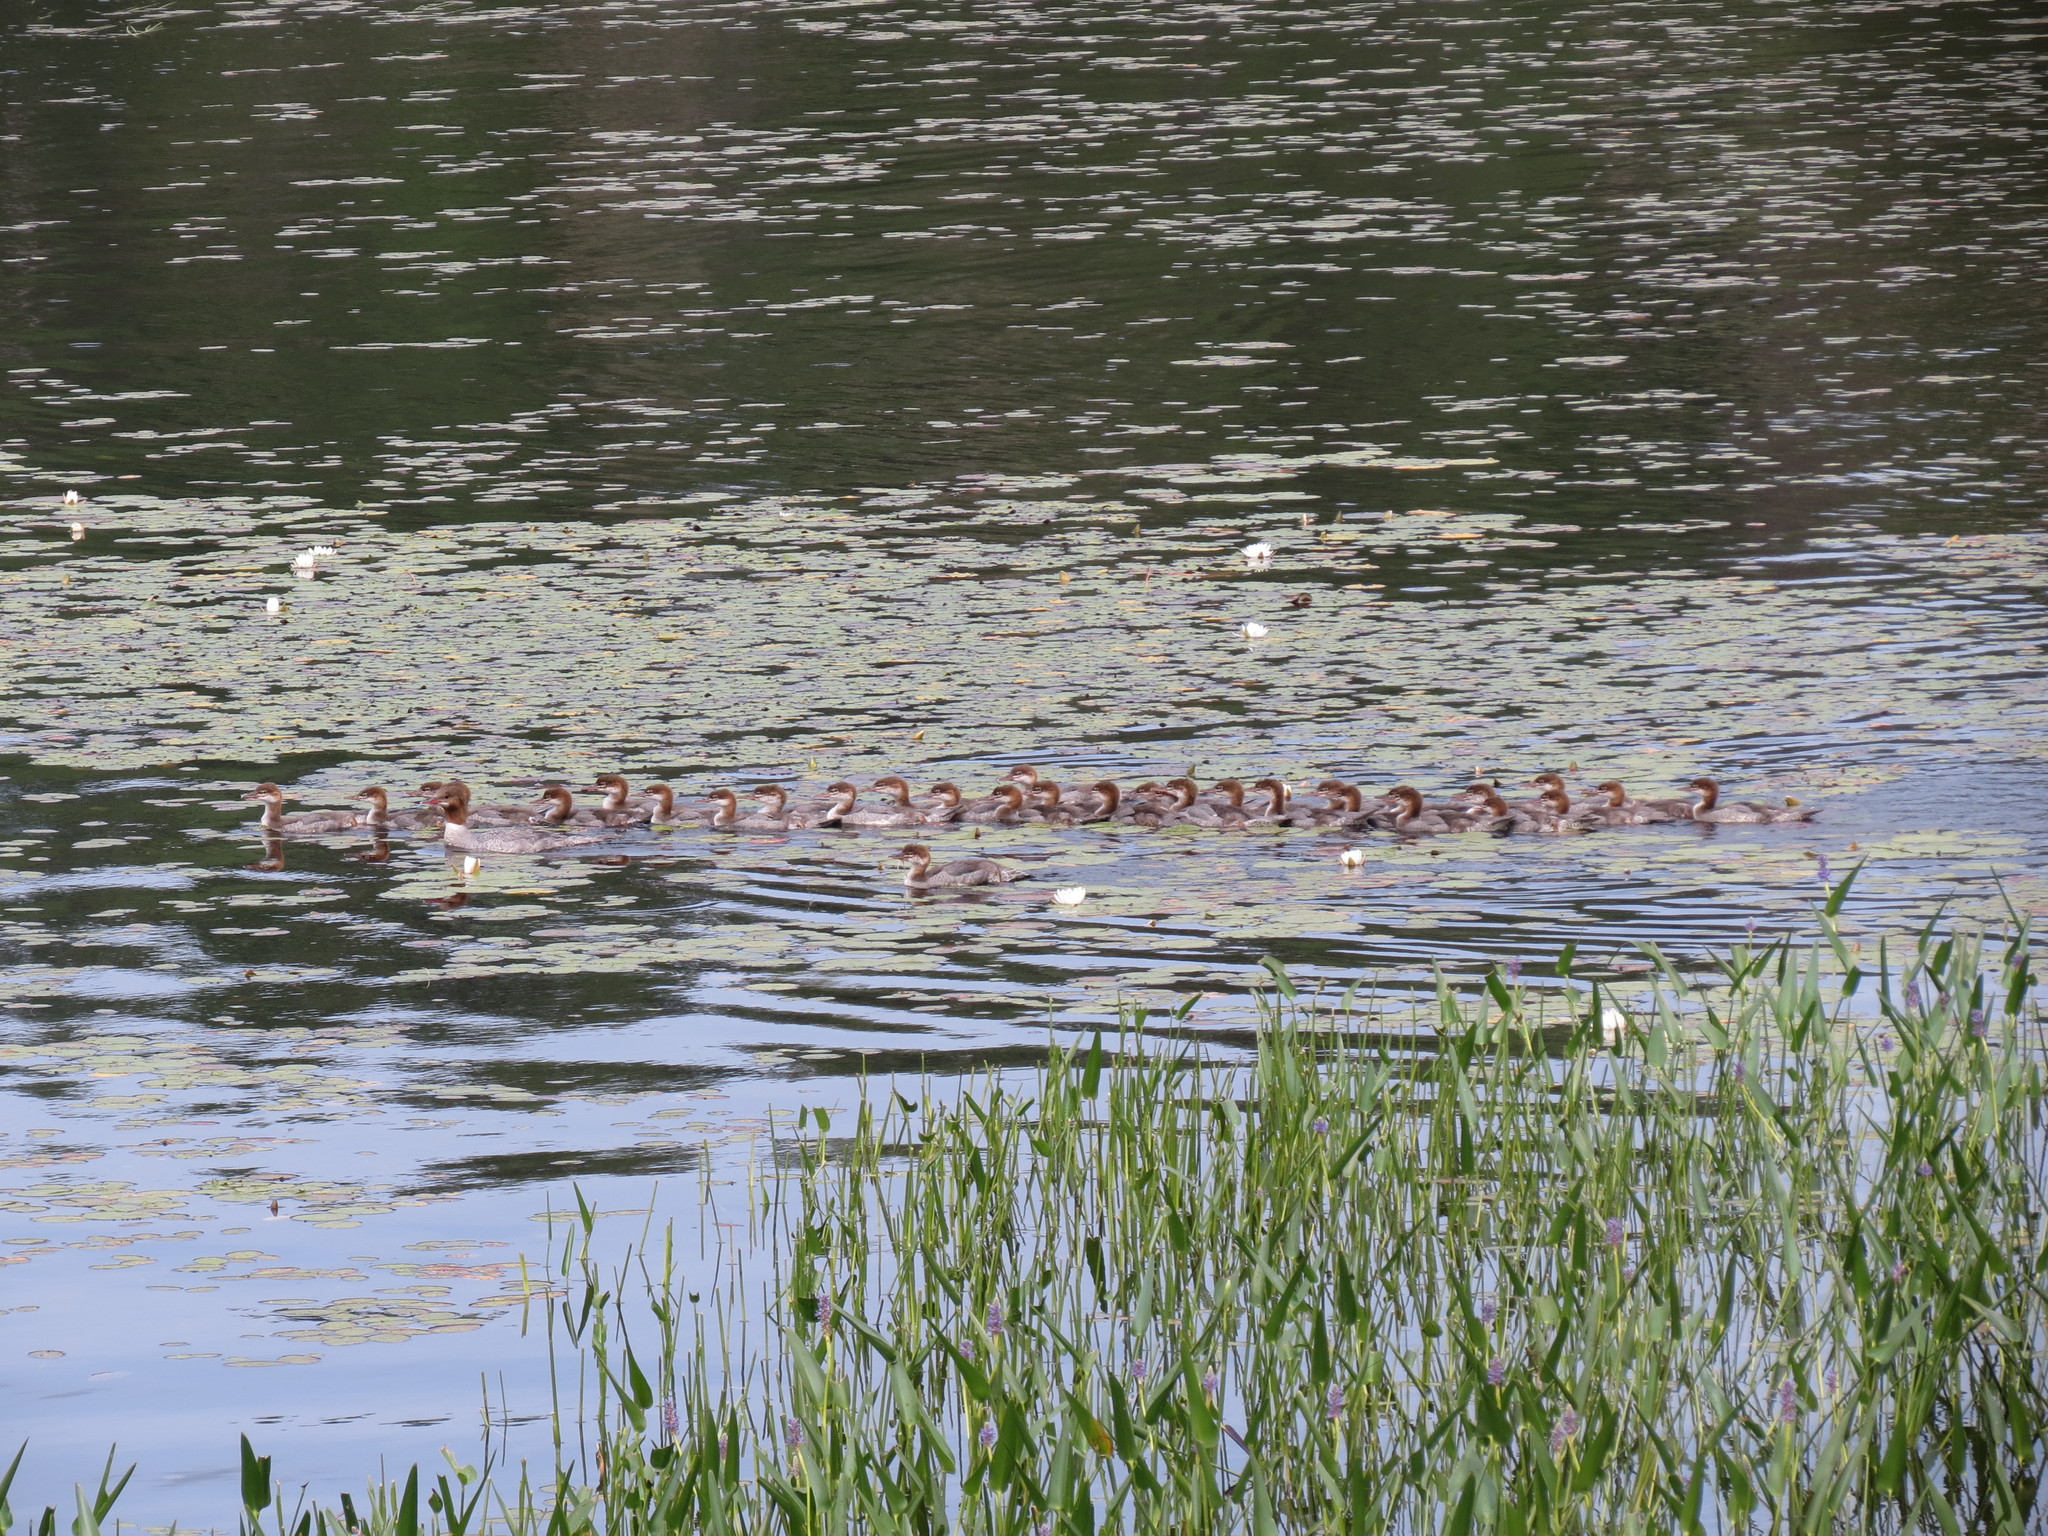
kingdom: Animalia
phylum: Chordata
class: Aves
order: Anseriformes
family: Anatidae
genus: Mergus
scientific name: Mergus merganser
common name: Common merganser
